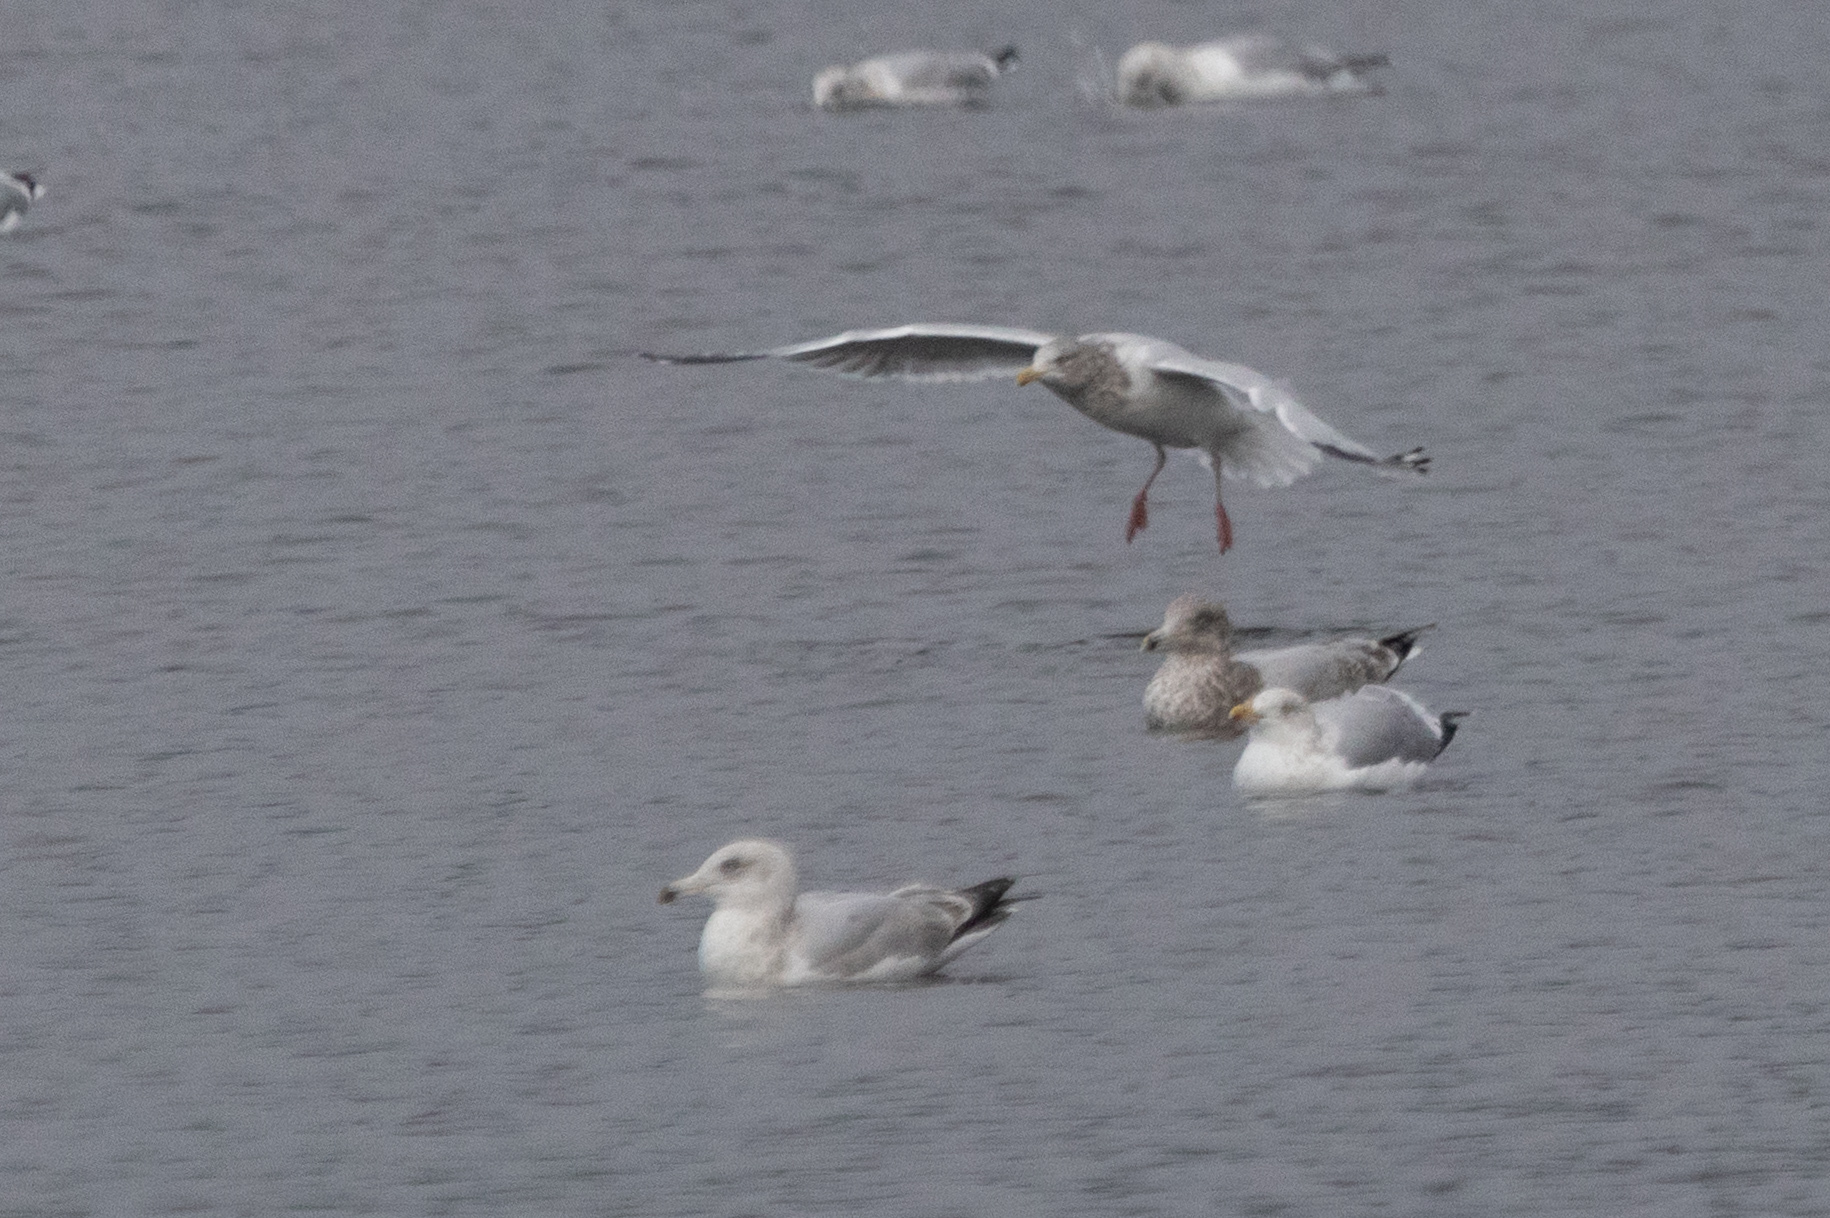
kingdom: Animalia
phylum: Chordata
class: Aves
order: Charadriiformes
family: Laridae
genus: Larus
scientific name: Larus argentatus
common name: Herring gull
